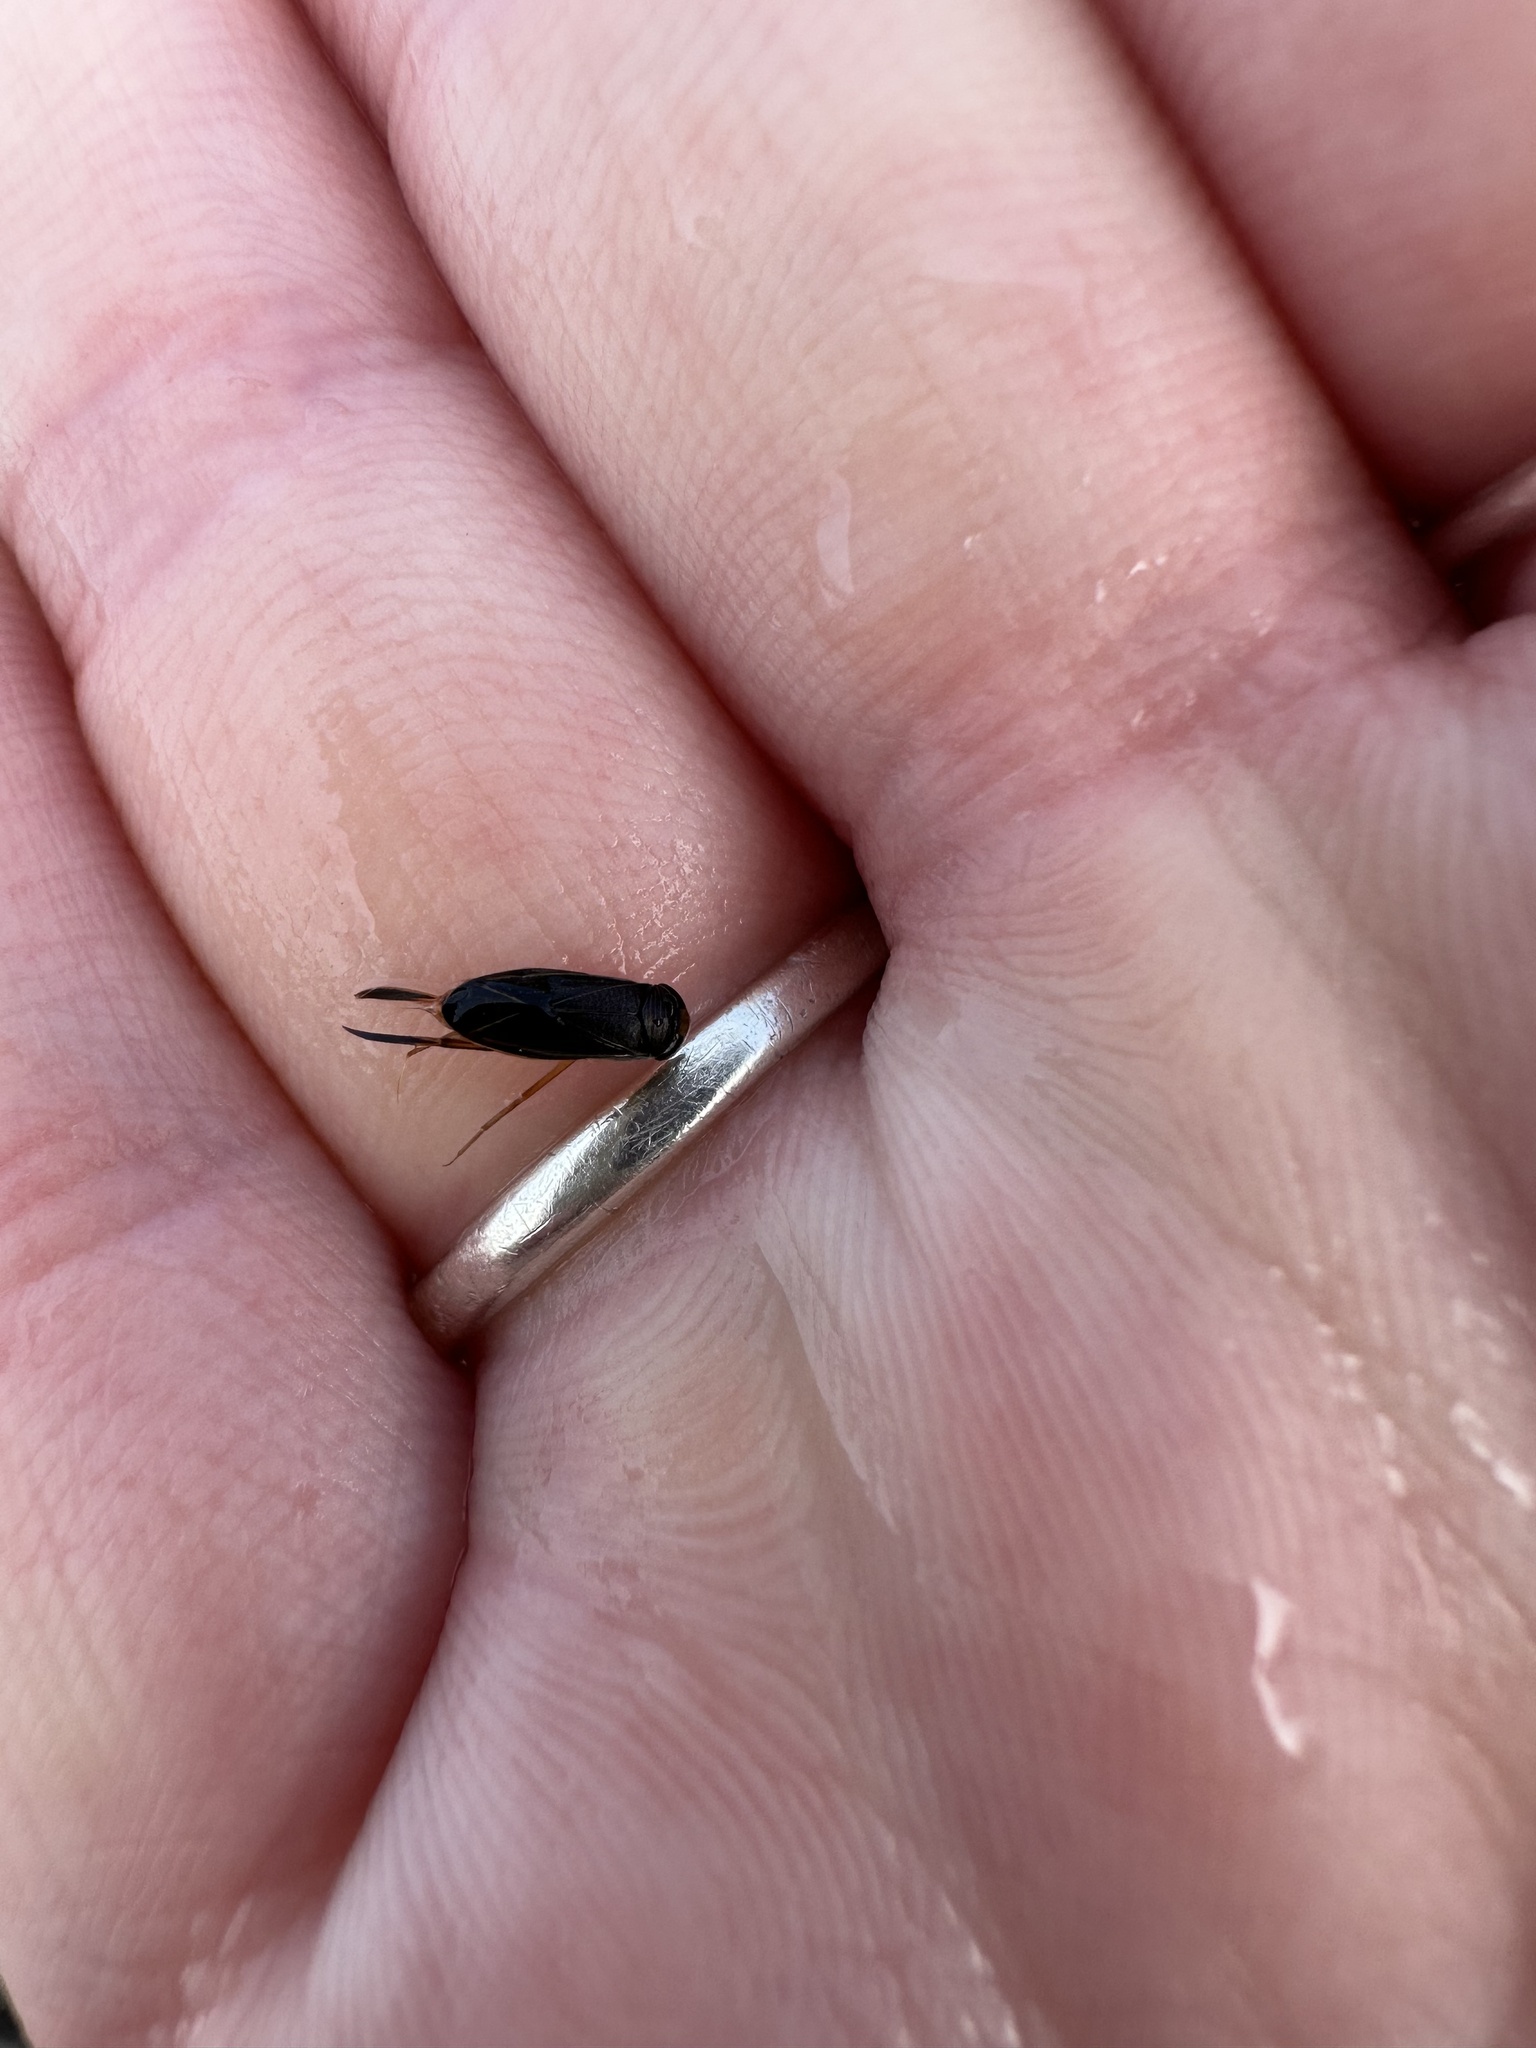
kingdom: Animalia
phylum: Arthropoda
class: Insecta
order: Hemiptera
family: Corixidae
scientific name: Corixidae
